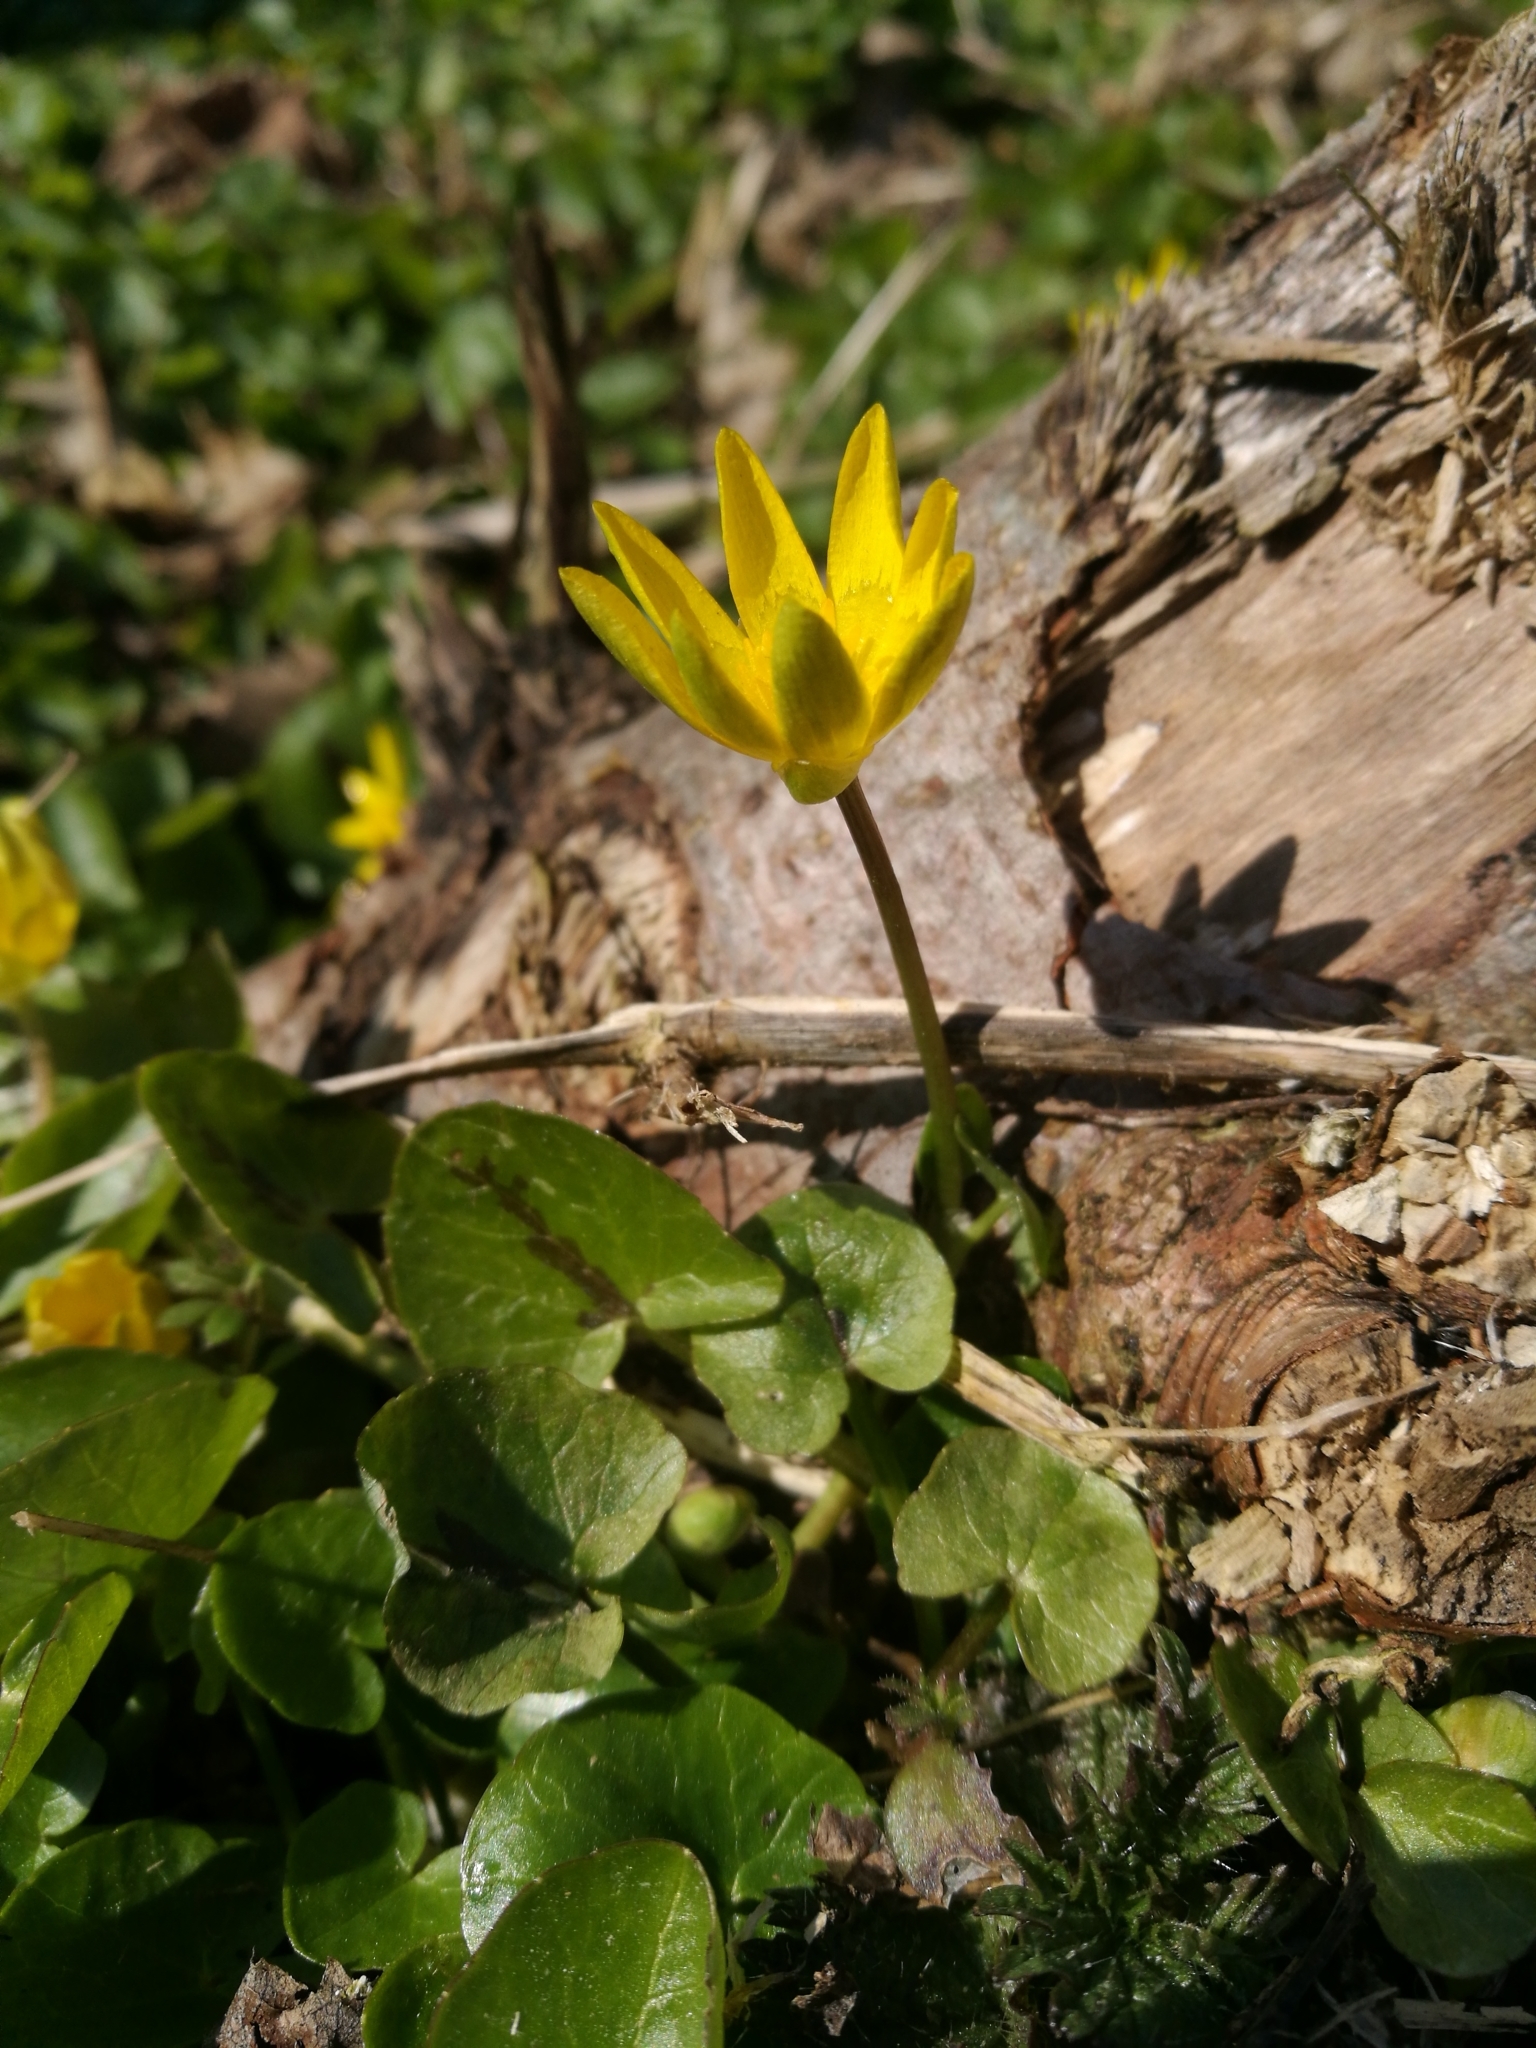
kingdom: Plantae
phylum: Tracheophyta
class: Magnoliopsida
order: Ranunculales
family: Ranunculaceae
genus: Ficaria
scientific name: Ficaria verna
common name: Lesser celandine
